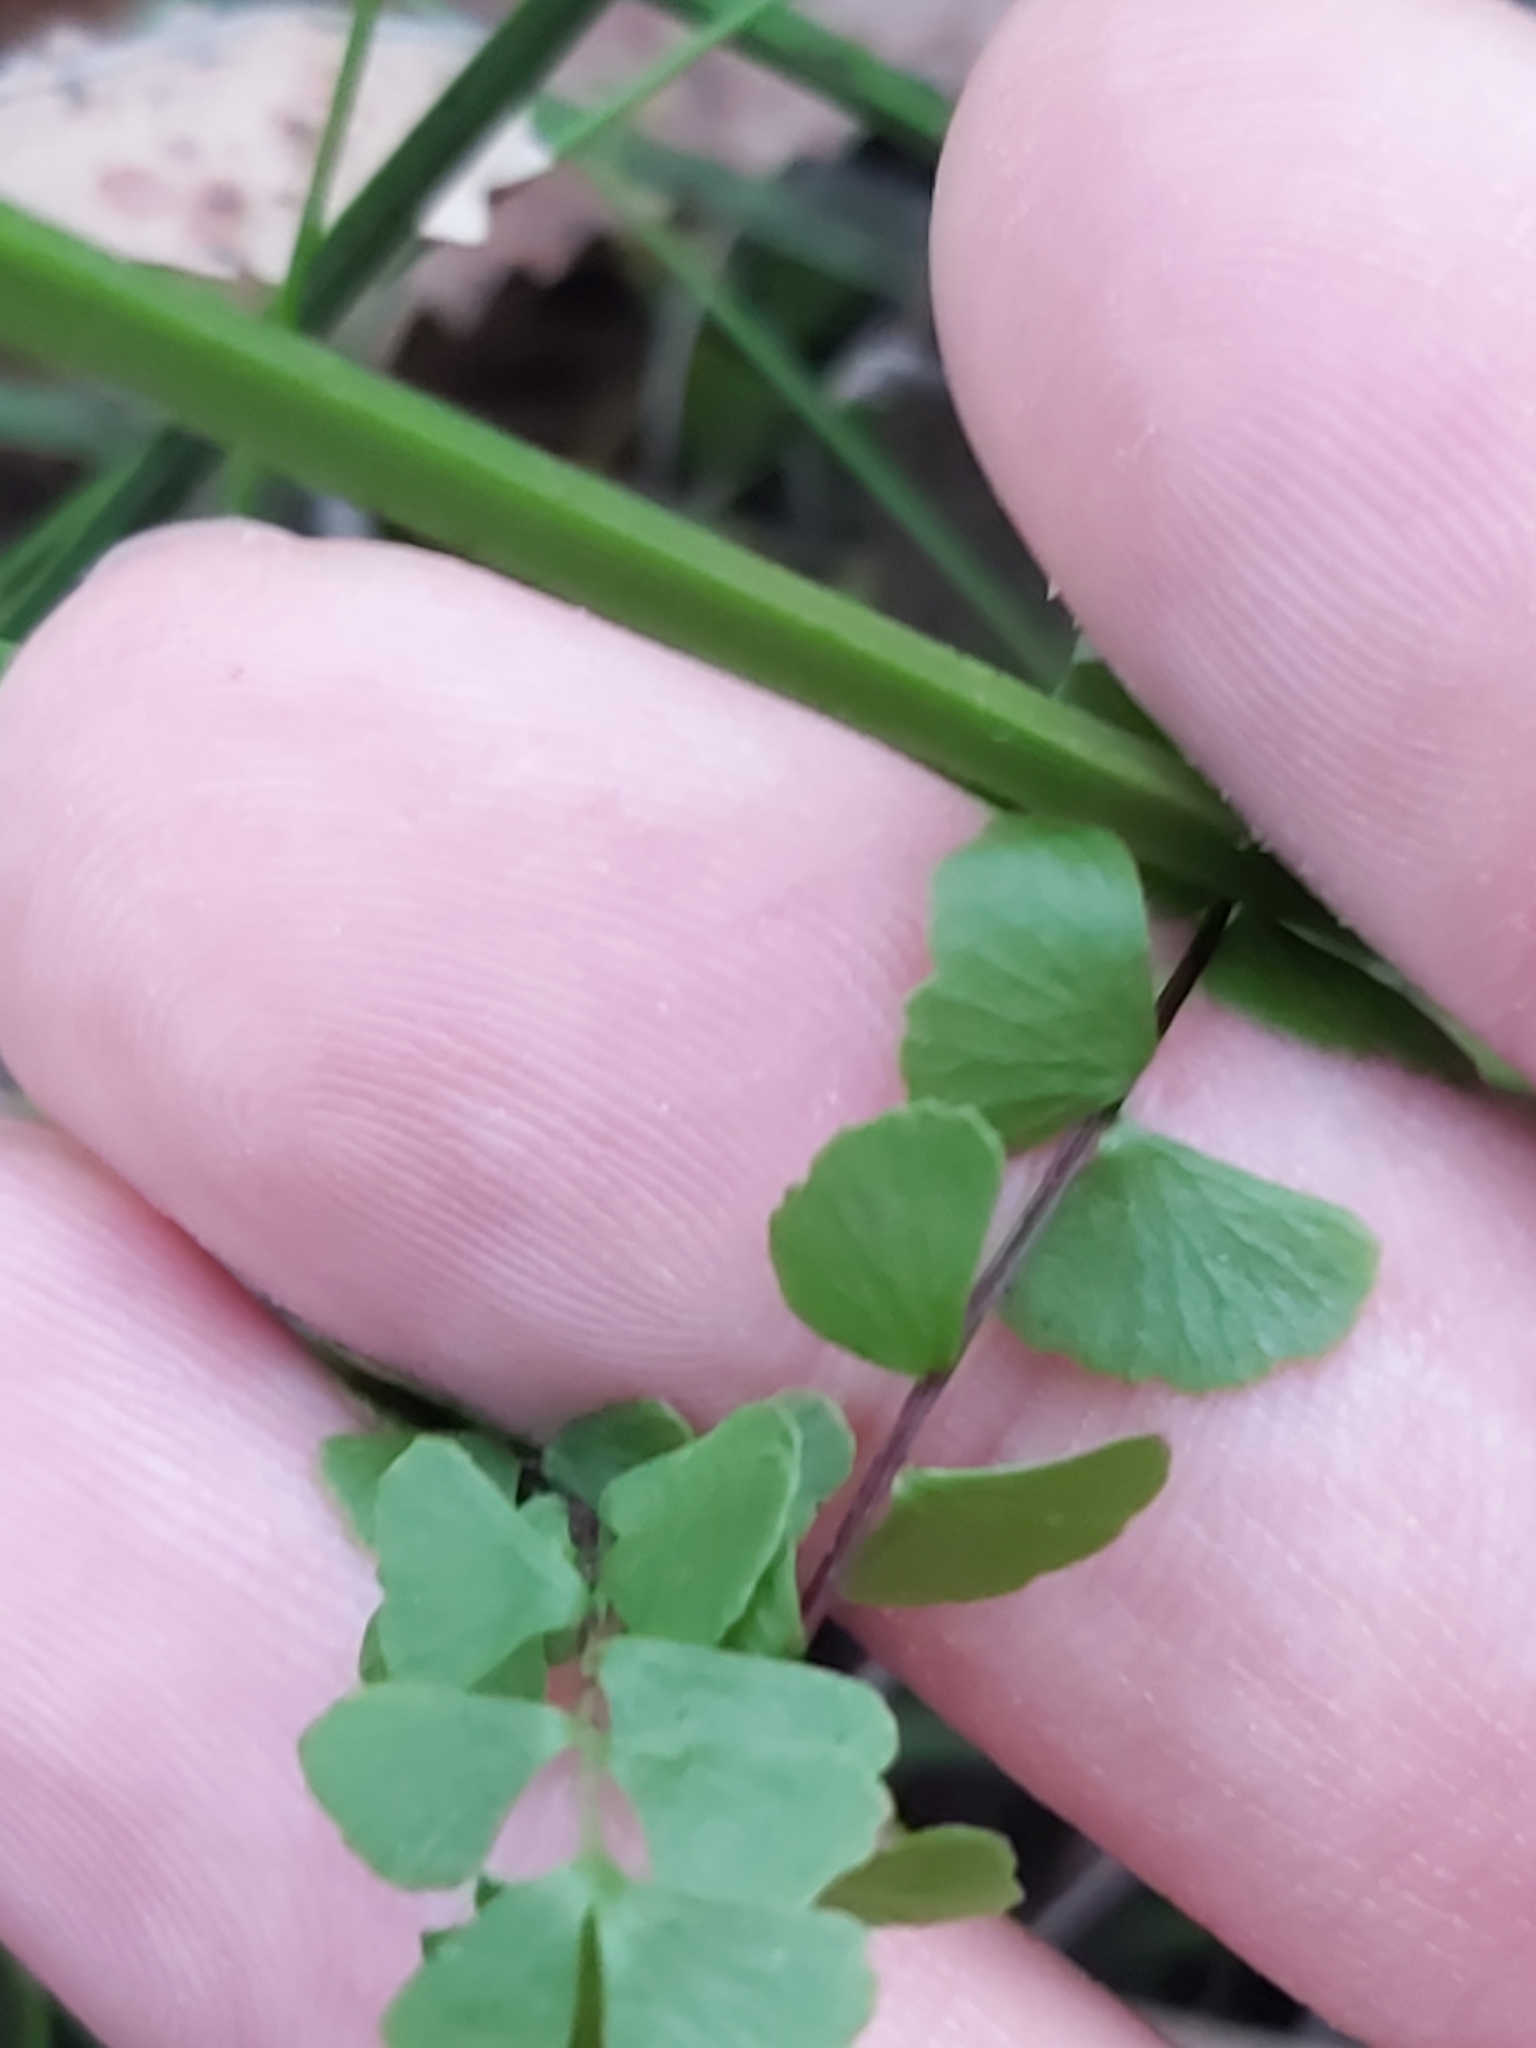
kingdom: Plantae
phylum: Tracheophyta
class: Polypodiopsida
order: Polypodiales
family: Lindsaeaceae
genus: Lindsaea
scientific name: Lindsaea linearis
